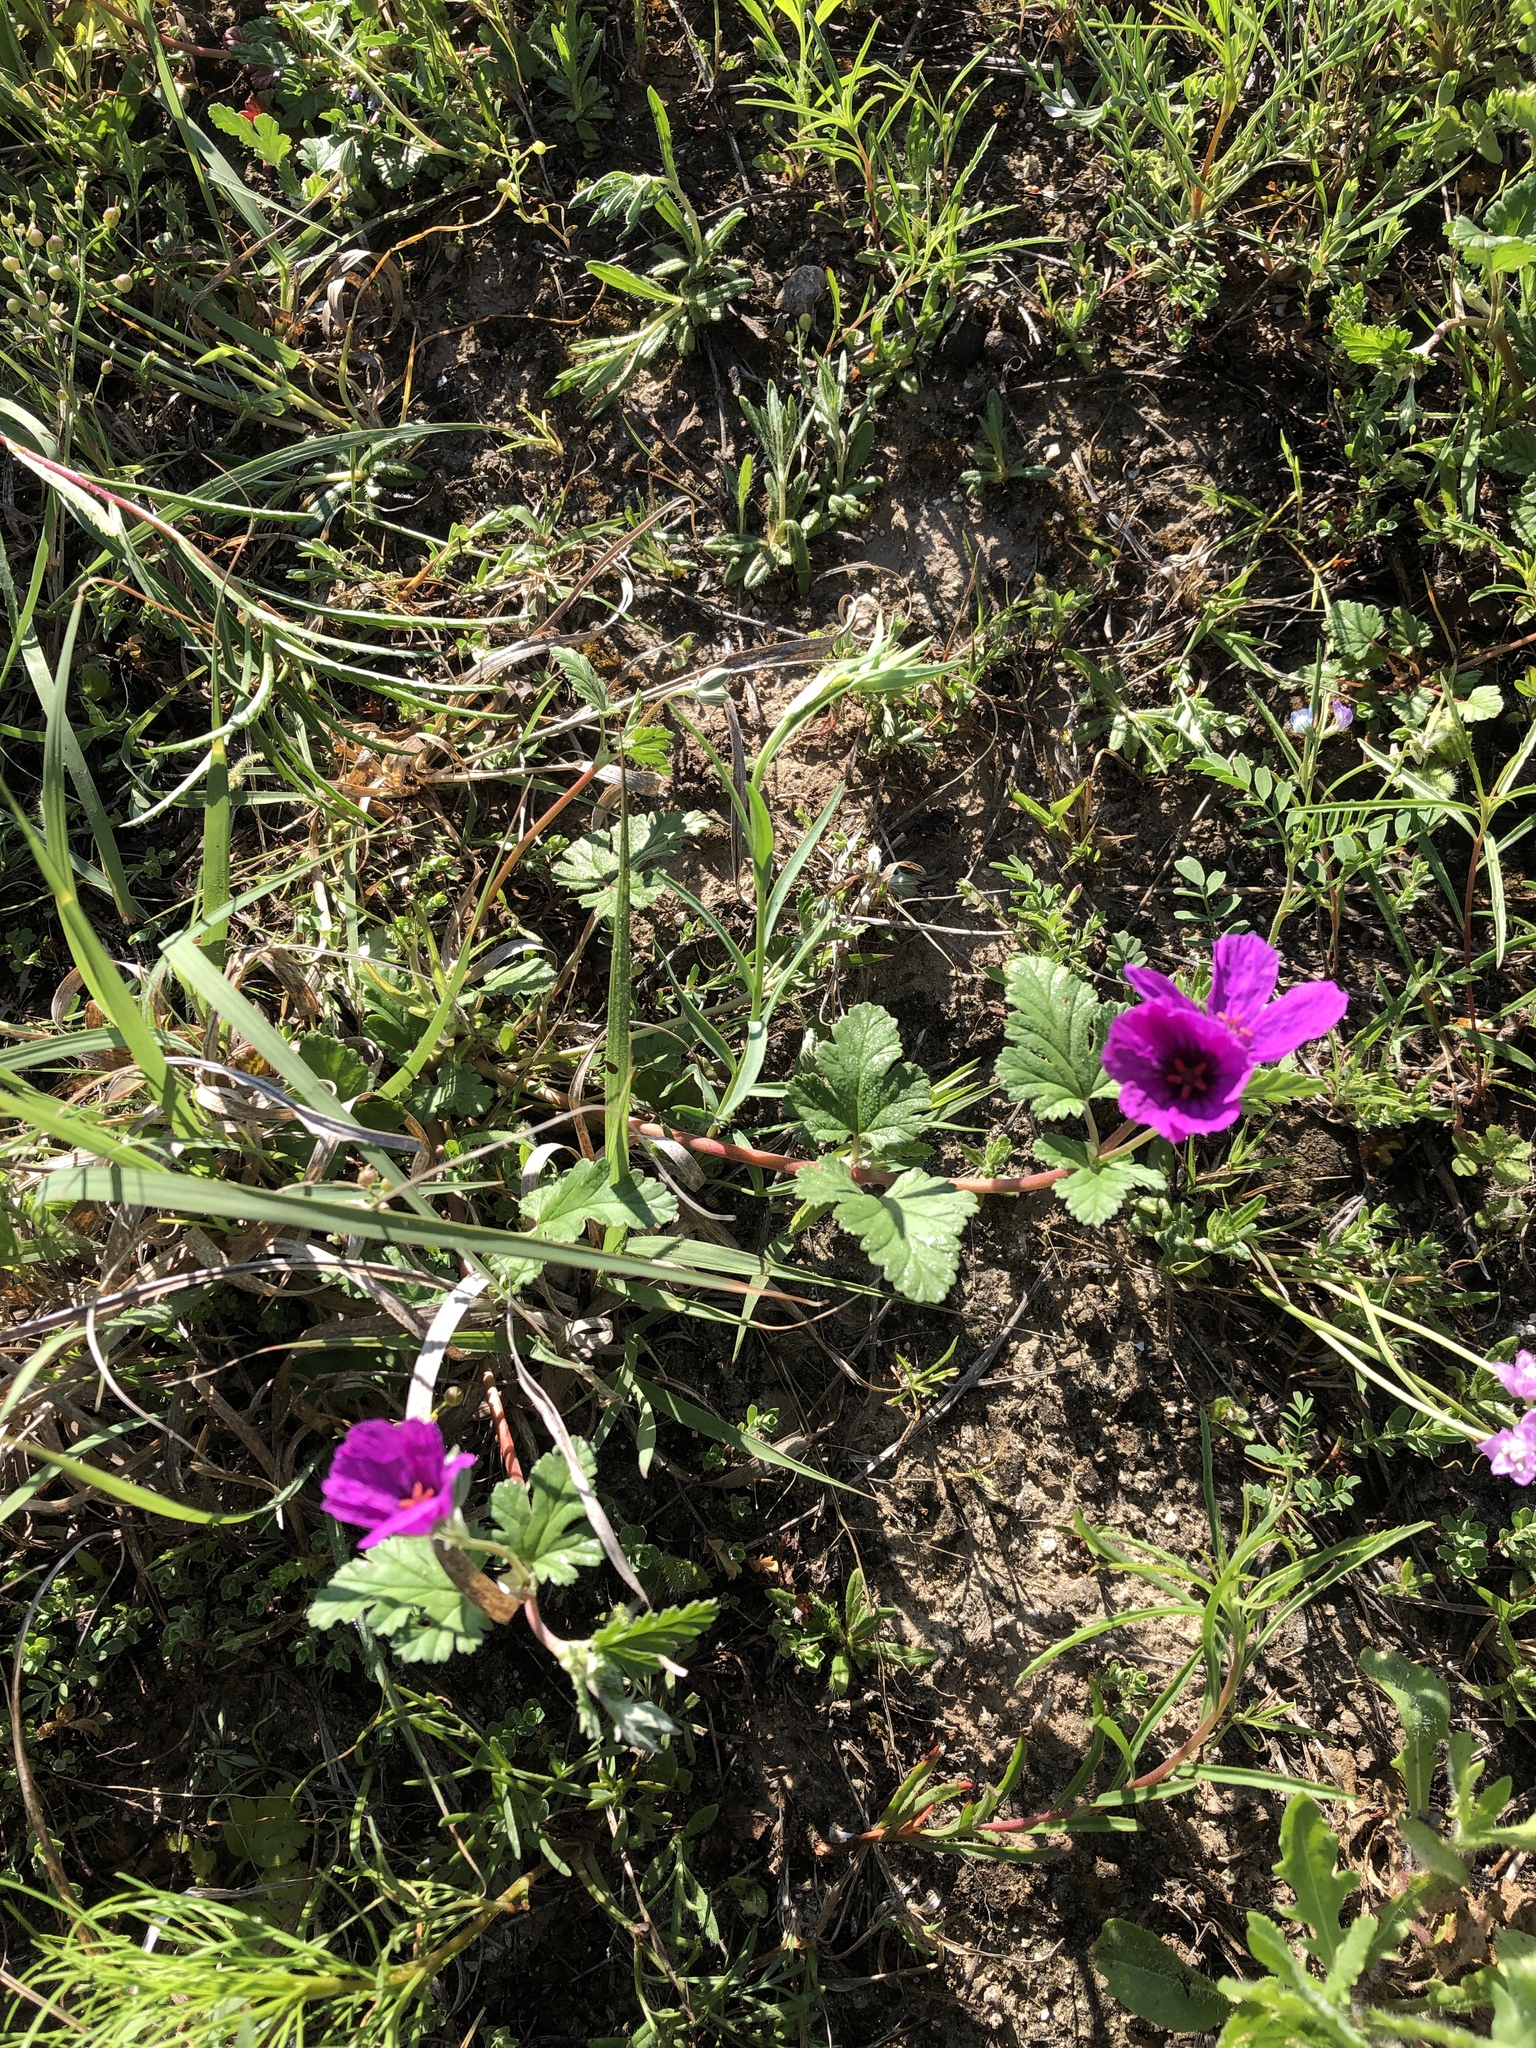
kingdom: Plantae
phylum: Tracheophyta
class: Magnoliopsida
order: Geraniales
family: Geraniaceae
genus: Erodium
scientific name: Erodium texanum
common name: Texas stork's-bill
